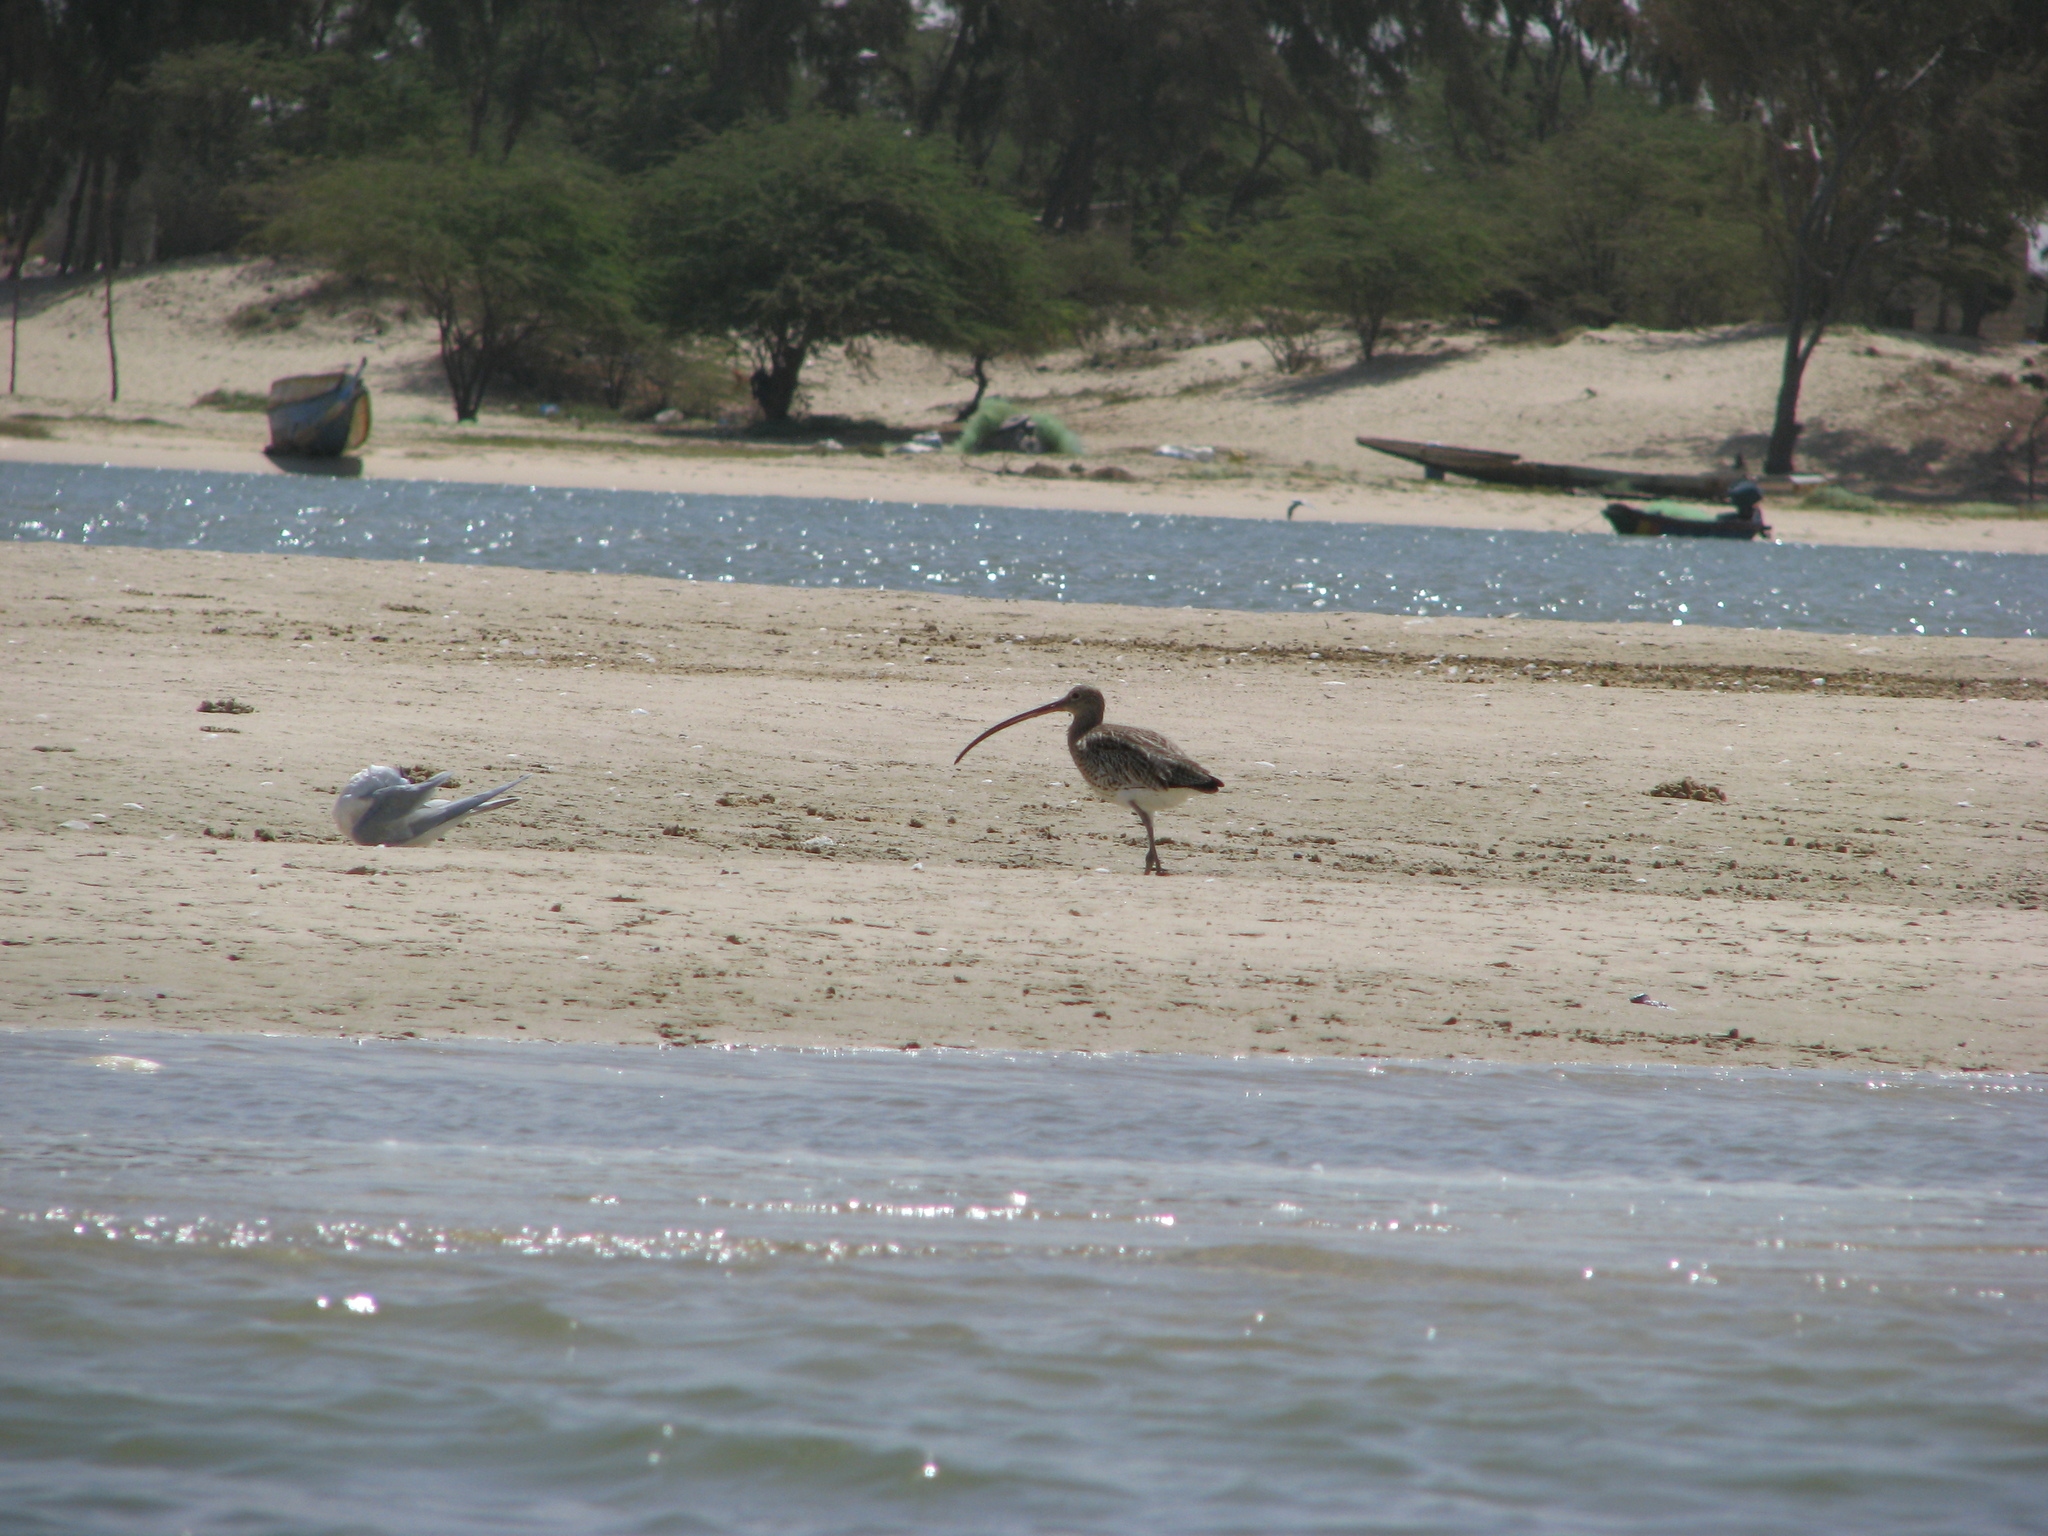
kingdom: Animalia
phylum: Chordata
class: Aves
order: Charadriiformes
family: Scolopacidae
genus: Numenius
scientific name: Numenius arquata
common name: Eurasian curlew
